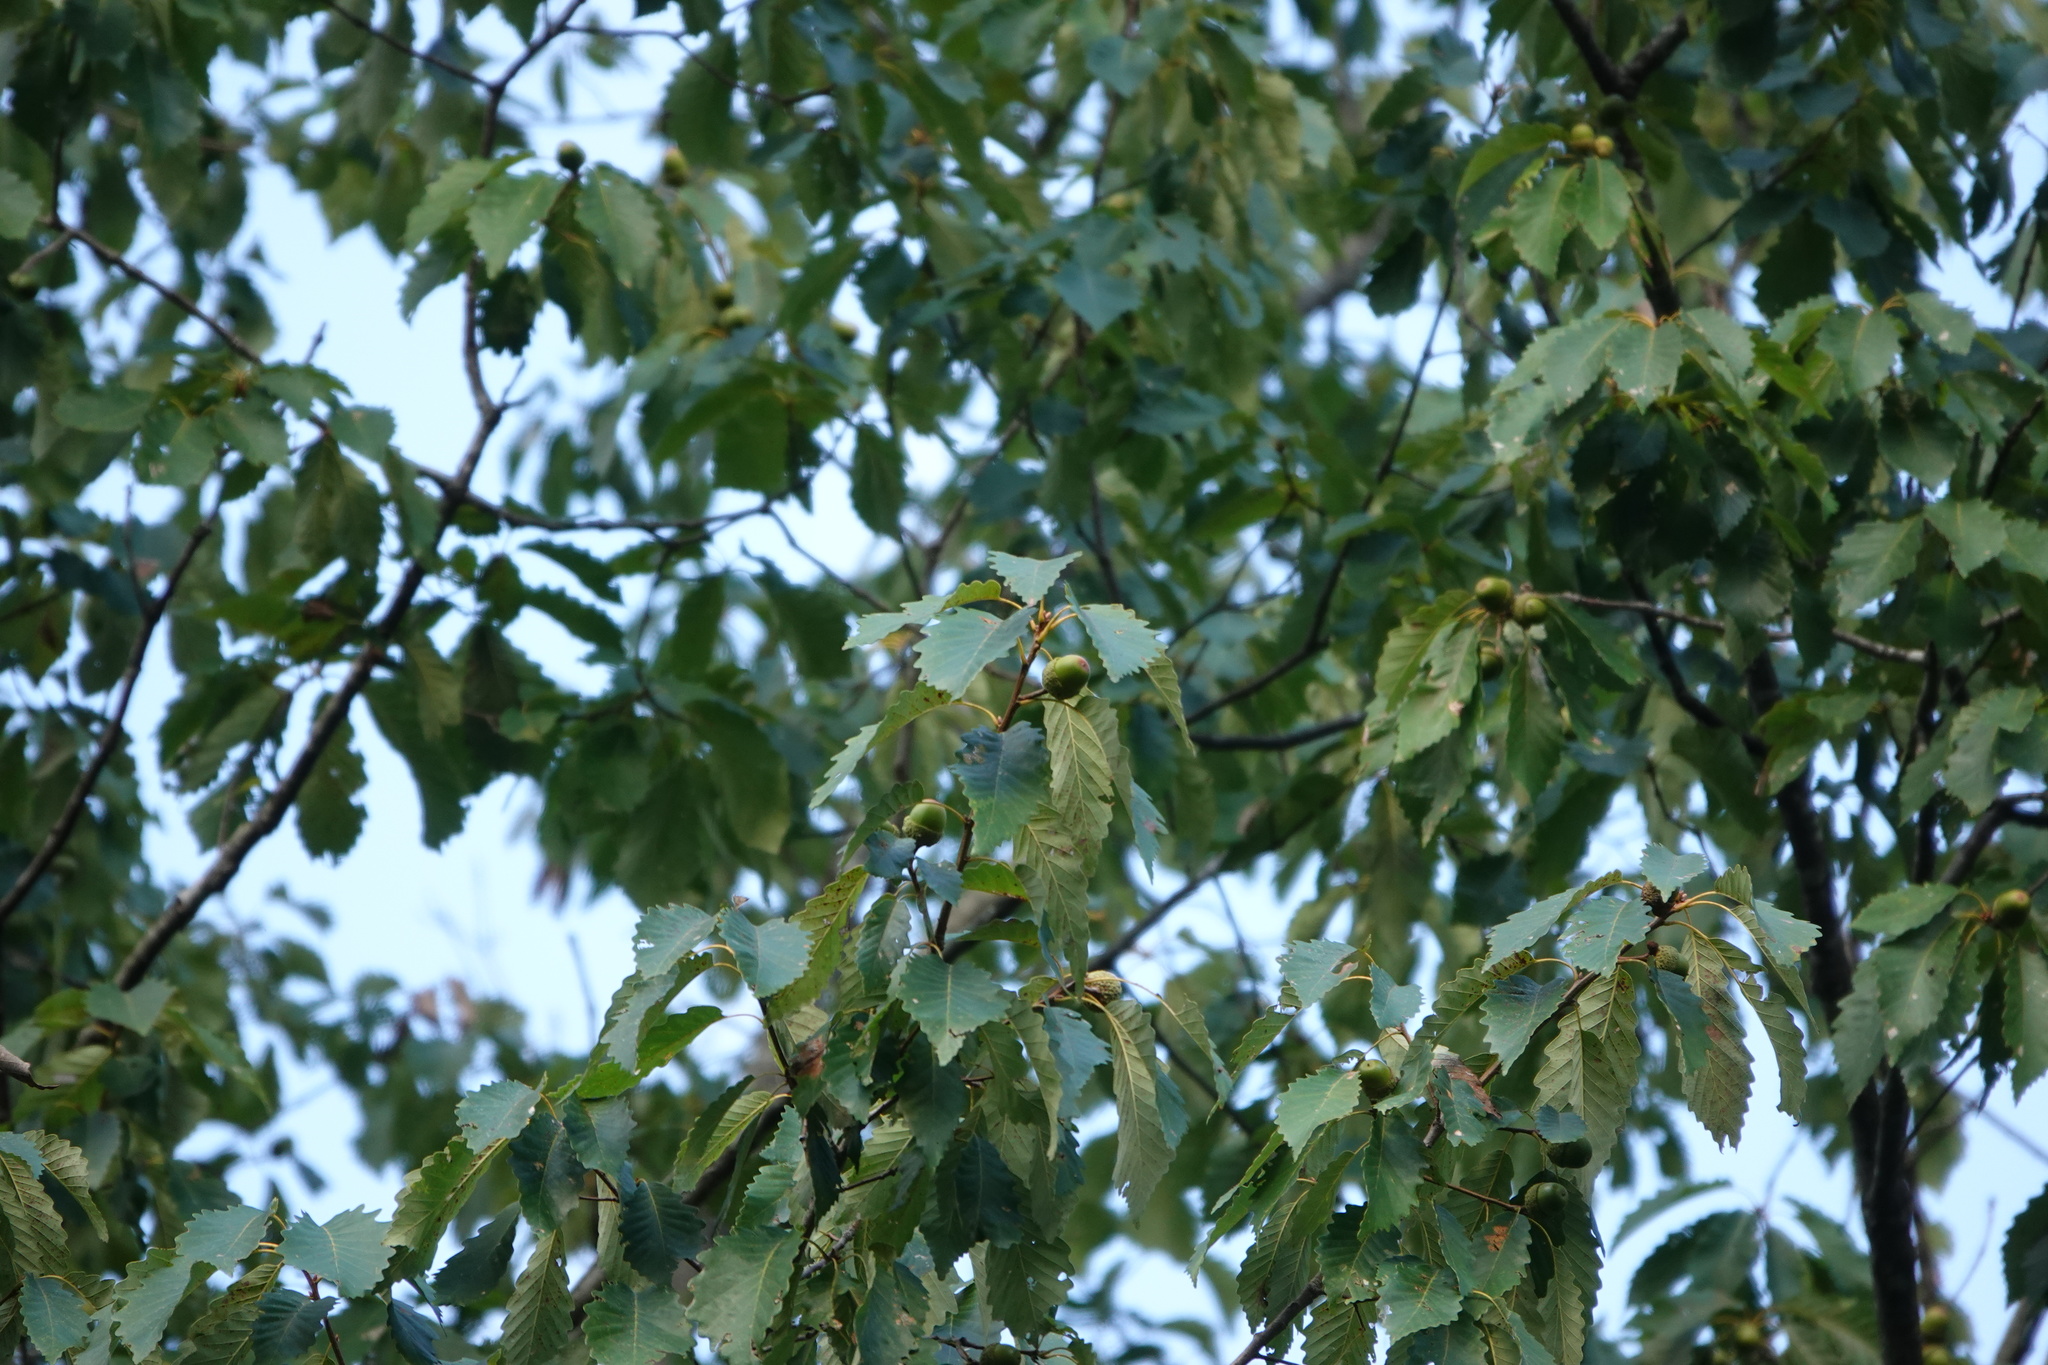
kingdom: Plantae
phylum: Tracheophyta
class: Magnoliopsida
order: Fagales
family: Fagaceae
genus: Quercus
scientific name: Quercus montana
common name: Chestnut oak
